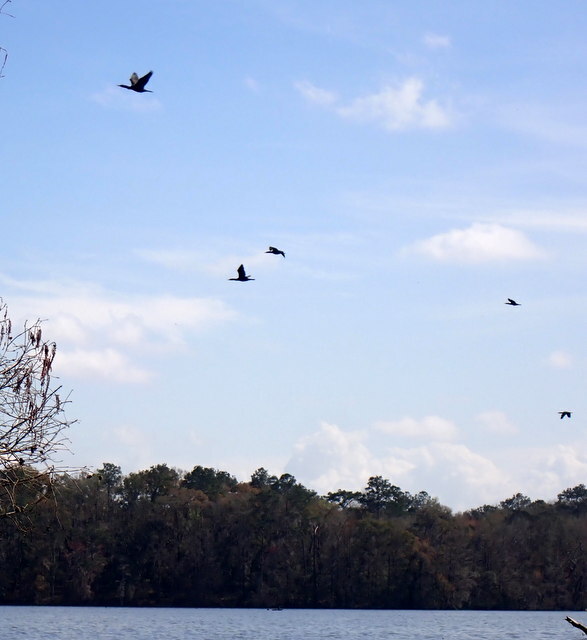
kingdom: Animalia
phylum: Chordata
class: Aves
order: Suliformes
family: Phalacrocoracidae
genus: Phalacrocorax
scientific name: Phalacrocorax auritus
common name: Double-crested cormorant
